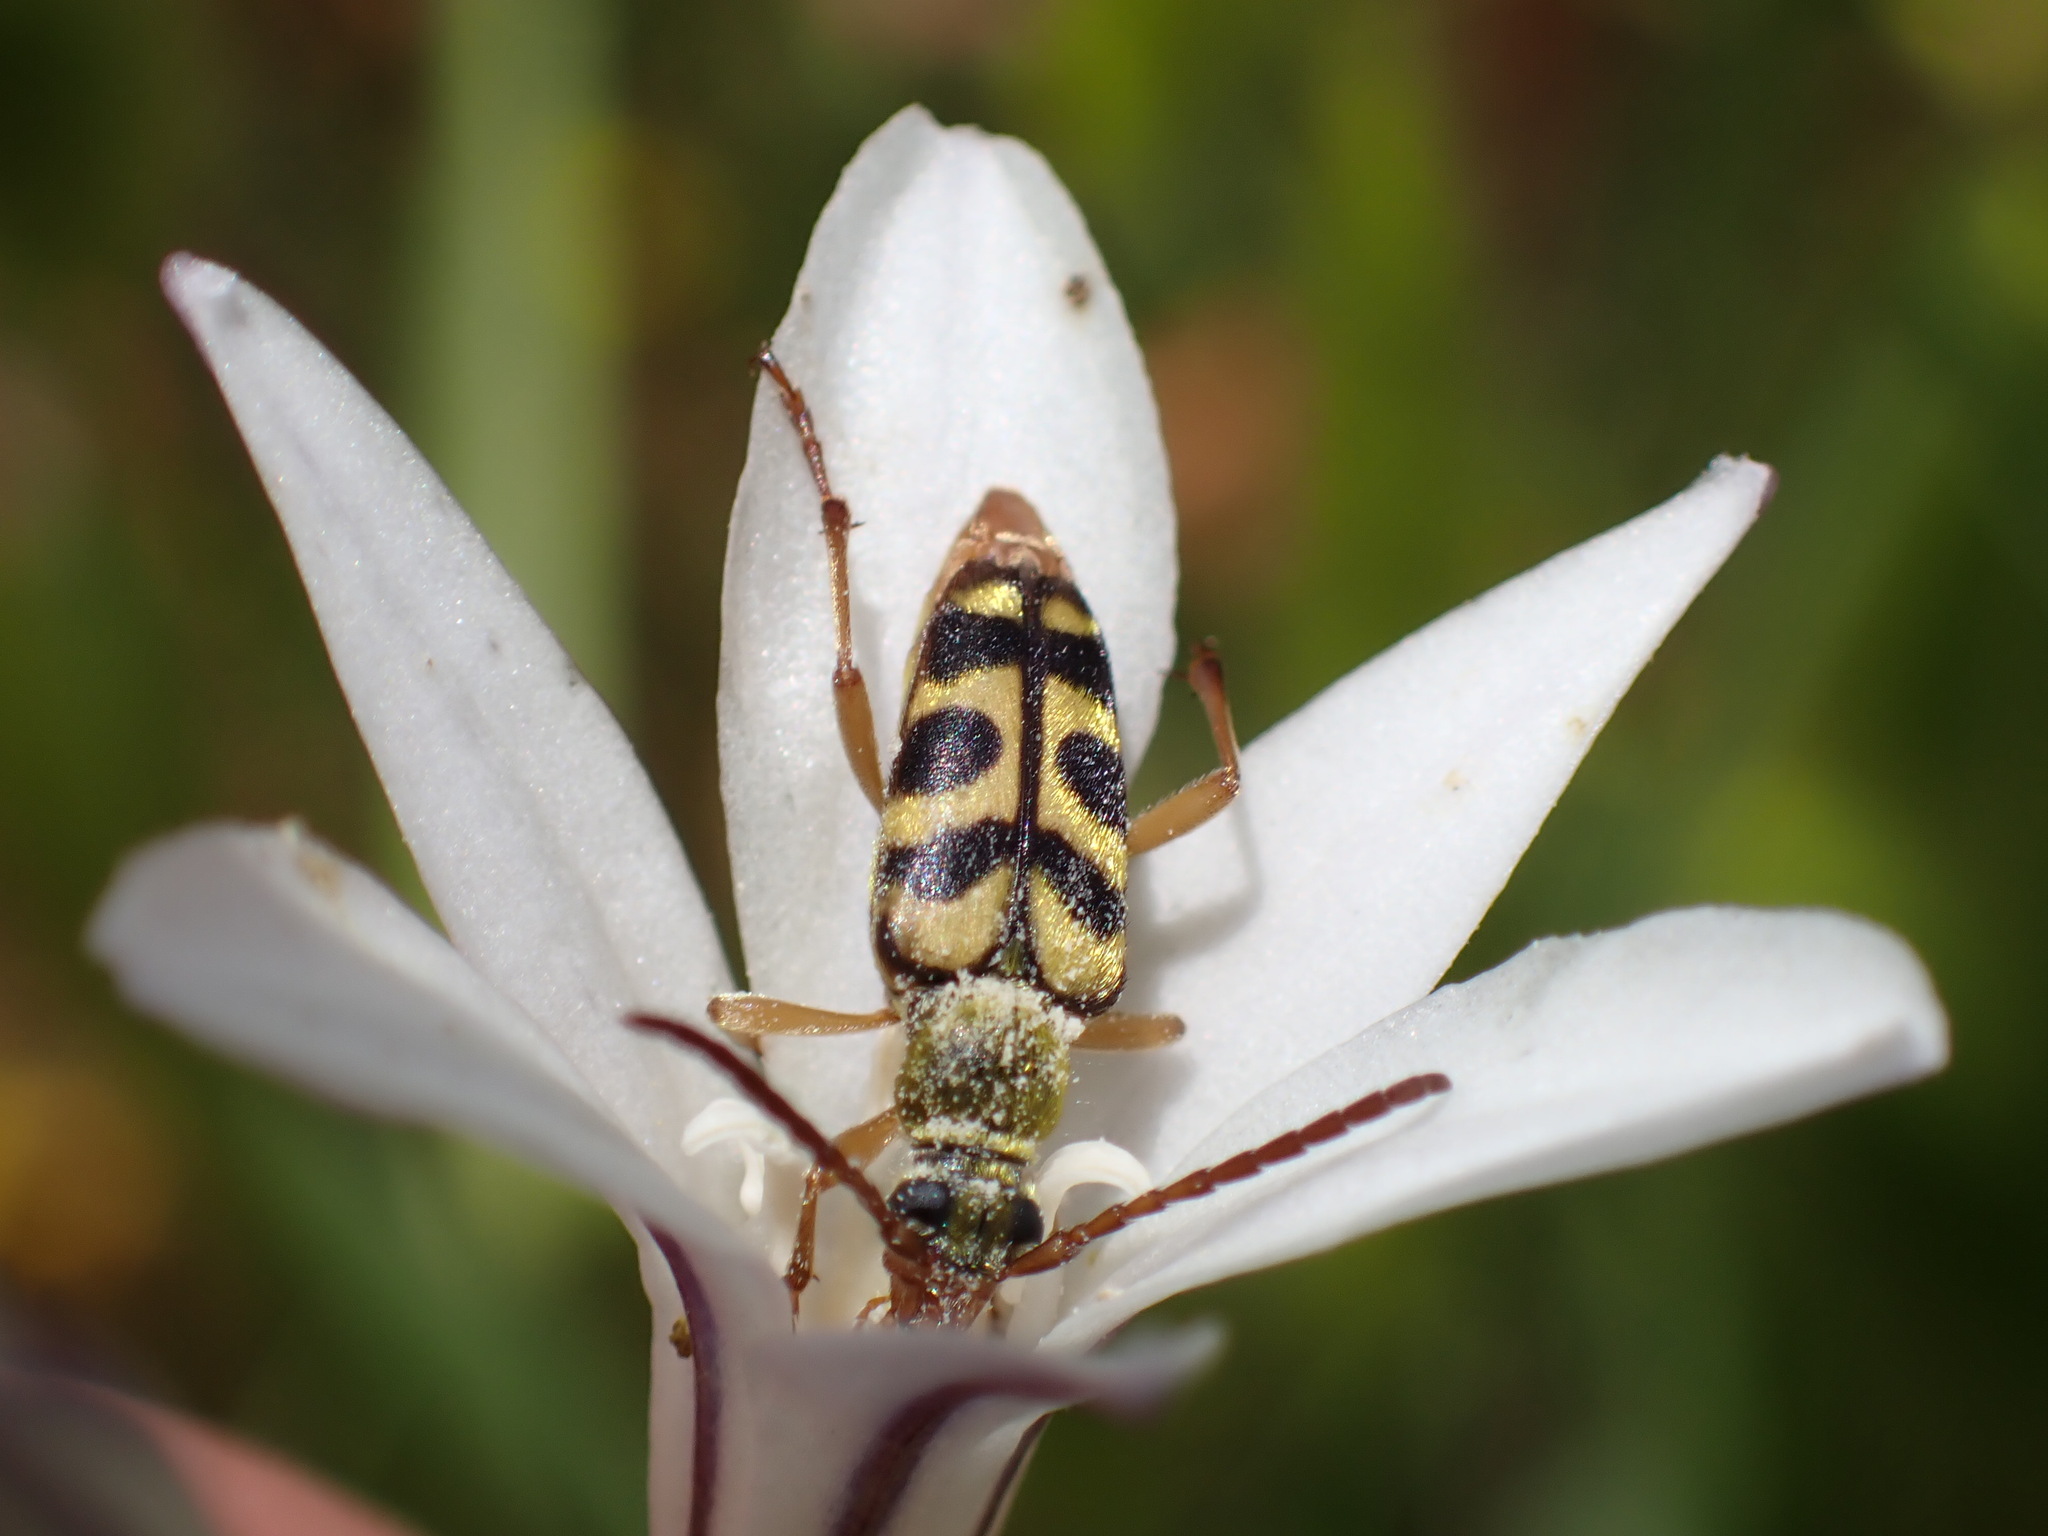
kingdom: Animalia
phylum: Arthropoda
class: Insecta
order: Coleoptera
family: Cerambycidae
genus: Strophiona
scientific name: Strophiona tigrina
